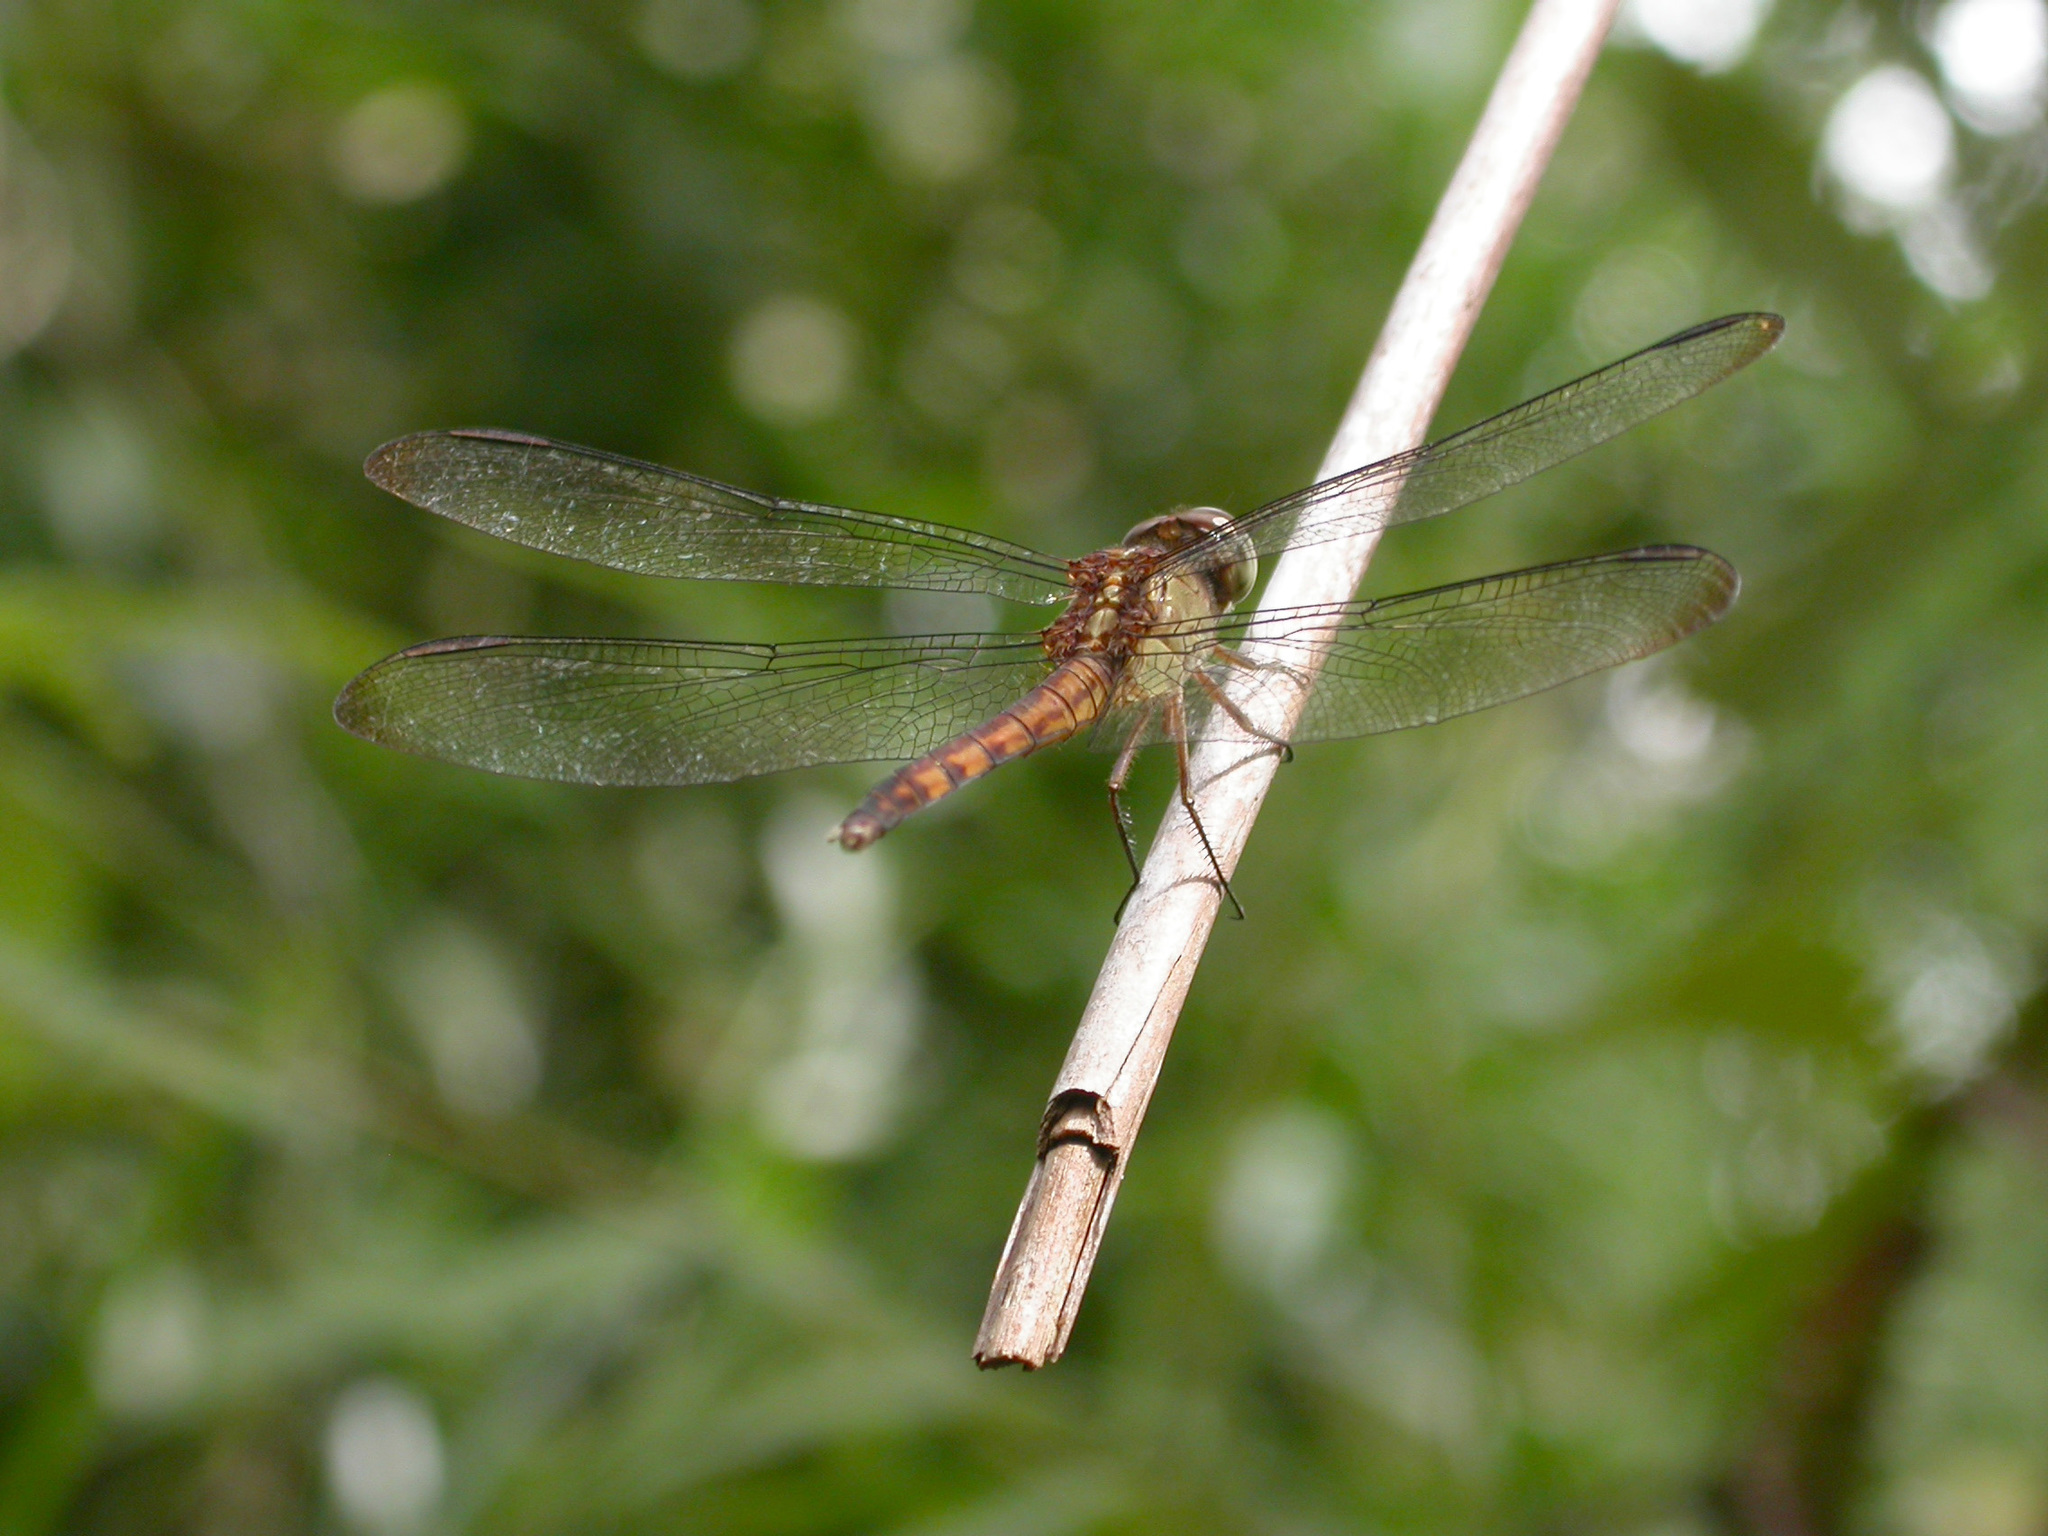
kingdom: Animalia
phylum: Arthropoda
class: Insecta
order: Odonata
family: Libellulidae
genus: Erythrodiplax
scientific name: Erythrodiplax umbrata
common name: Band-winged dragonlet
